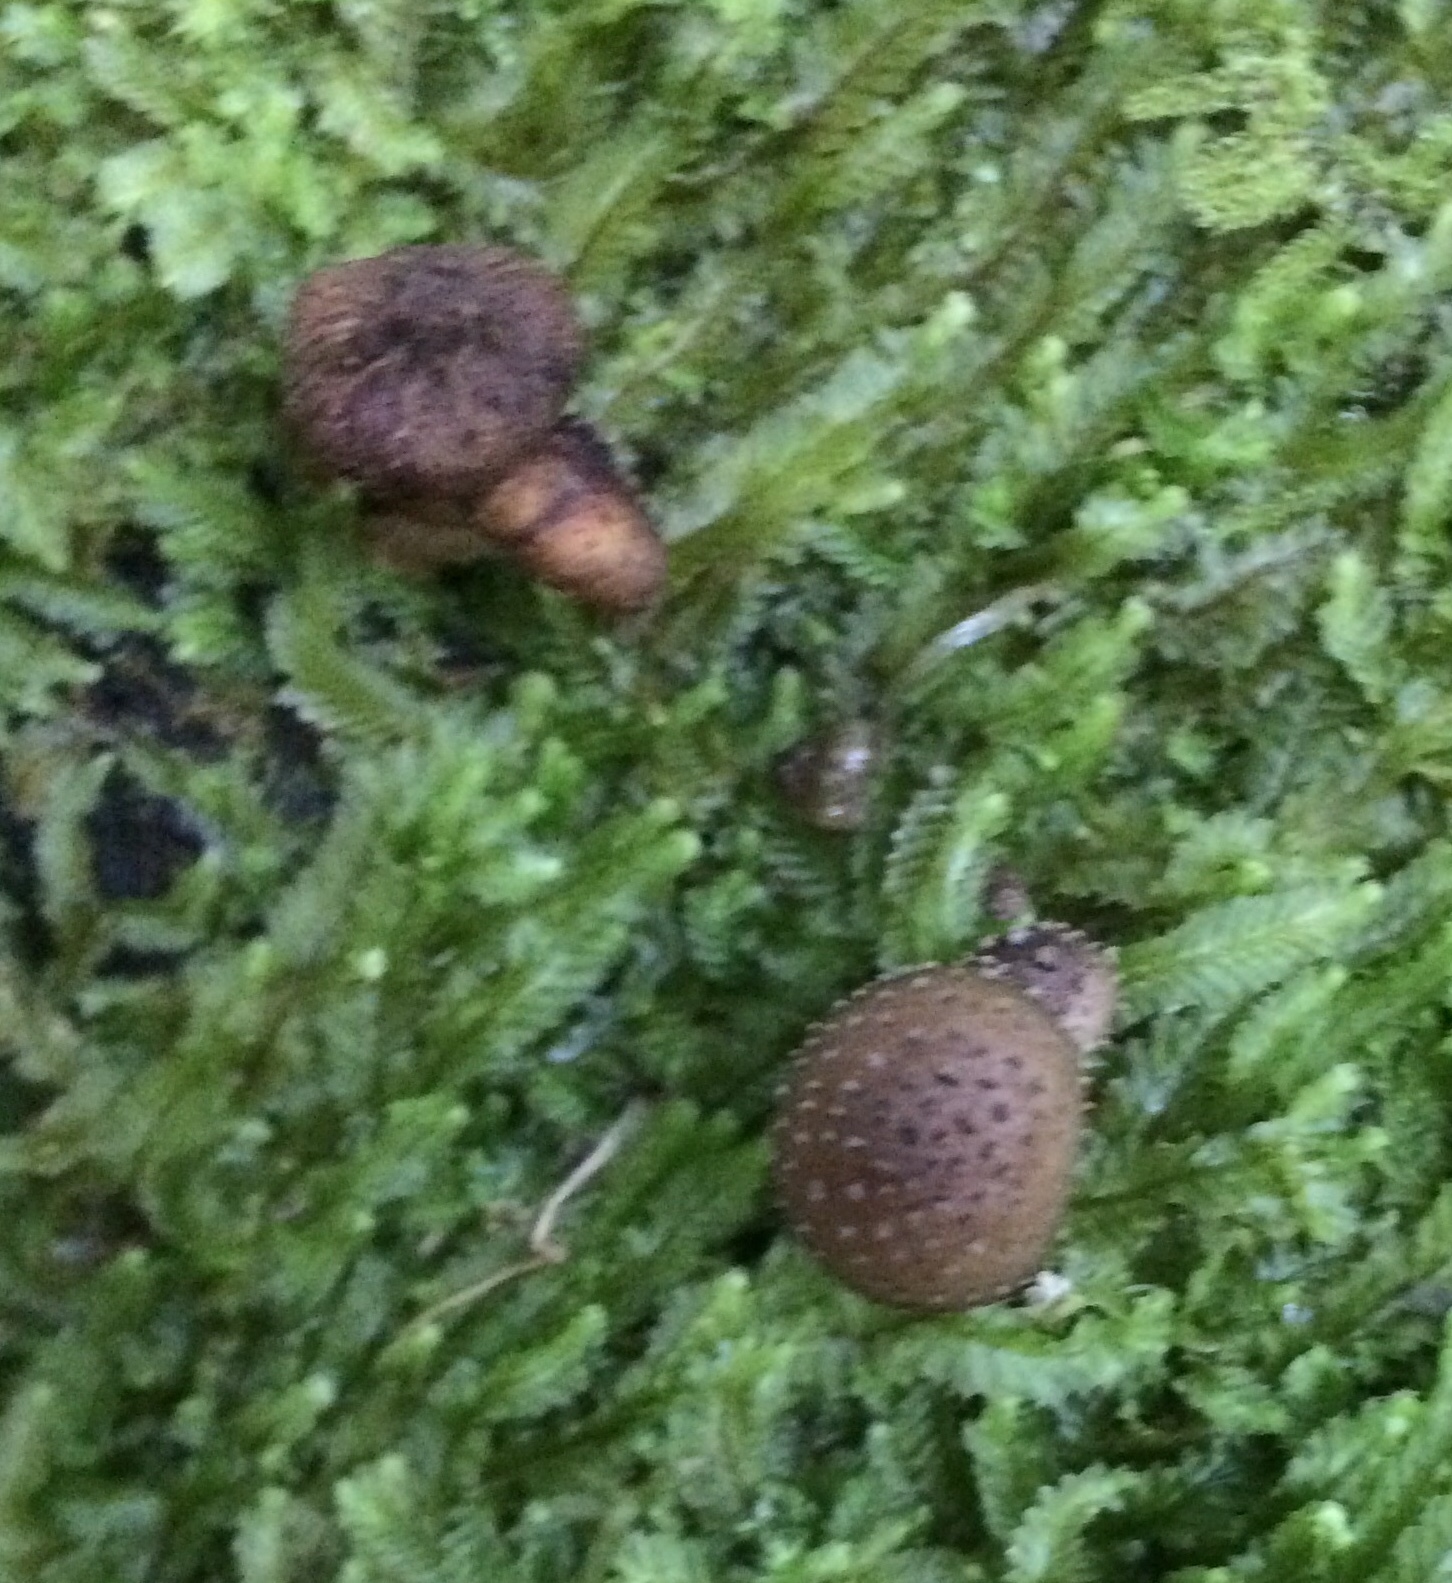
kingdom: Fungi
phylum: Basidiomycota
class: Agaricomycetes
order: Agaricales
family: Physalacriaceae
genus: Armillaria
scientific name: Armillaria novae-zelandiae
